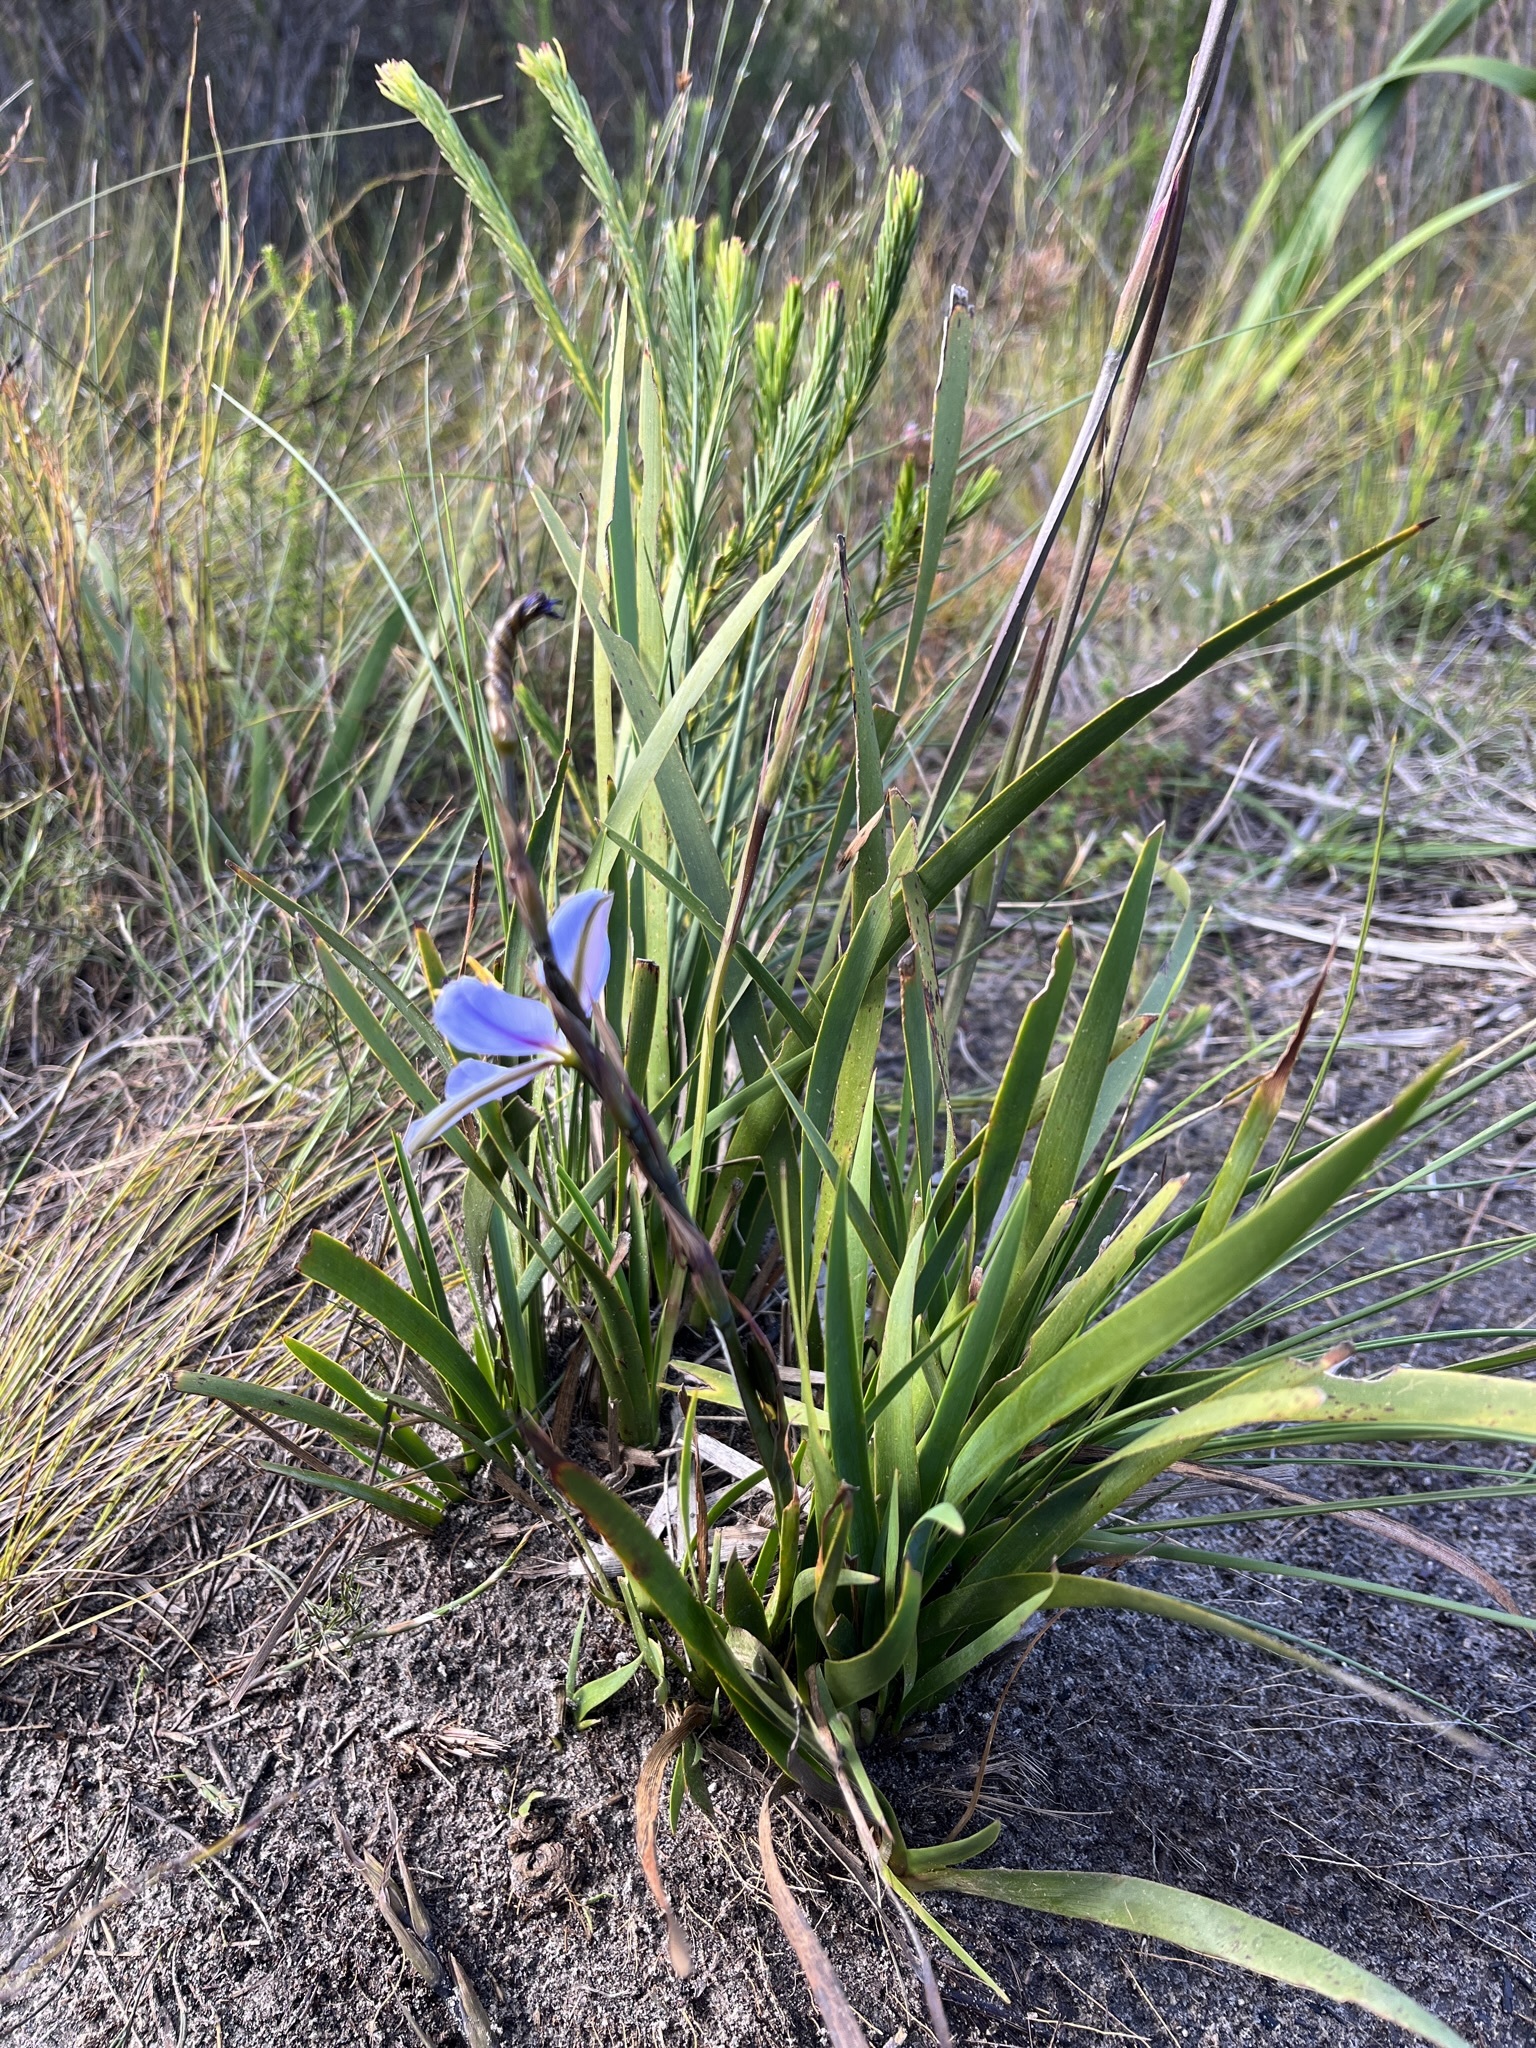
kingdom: Plantae
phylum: Tracheophyta
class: Liliopsida
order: Asparagales
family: Iridaceae
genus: Aristea
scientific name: Aristea spiralis
